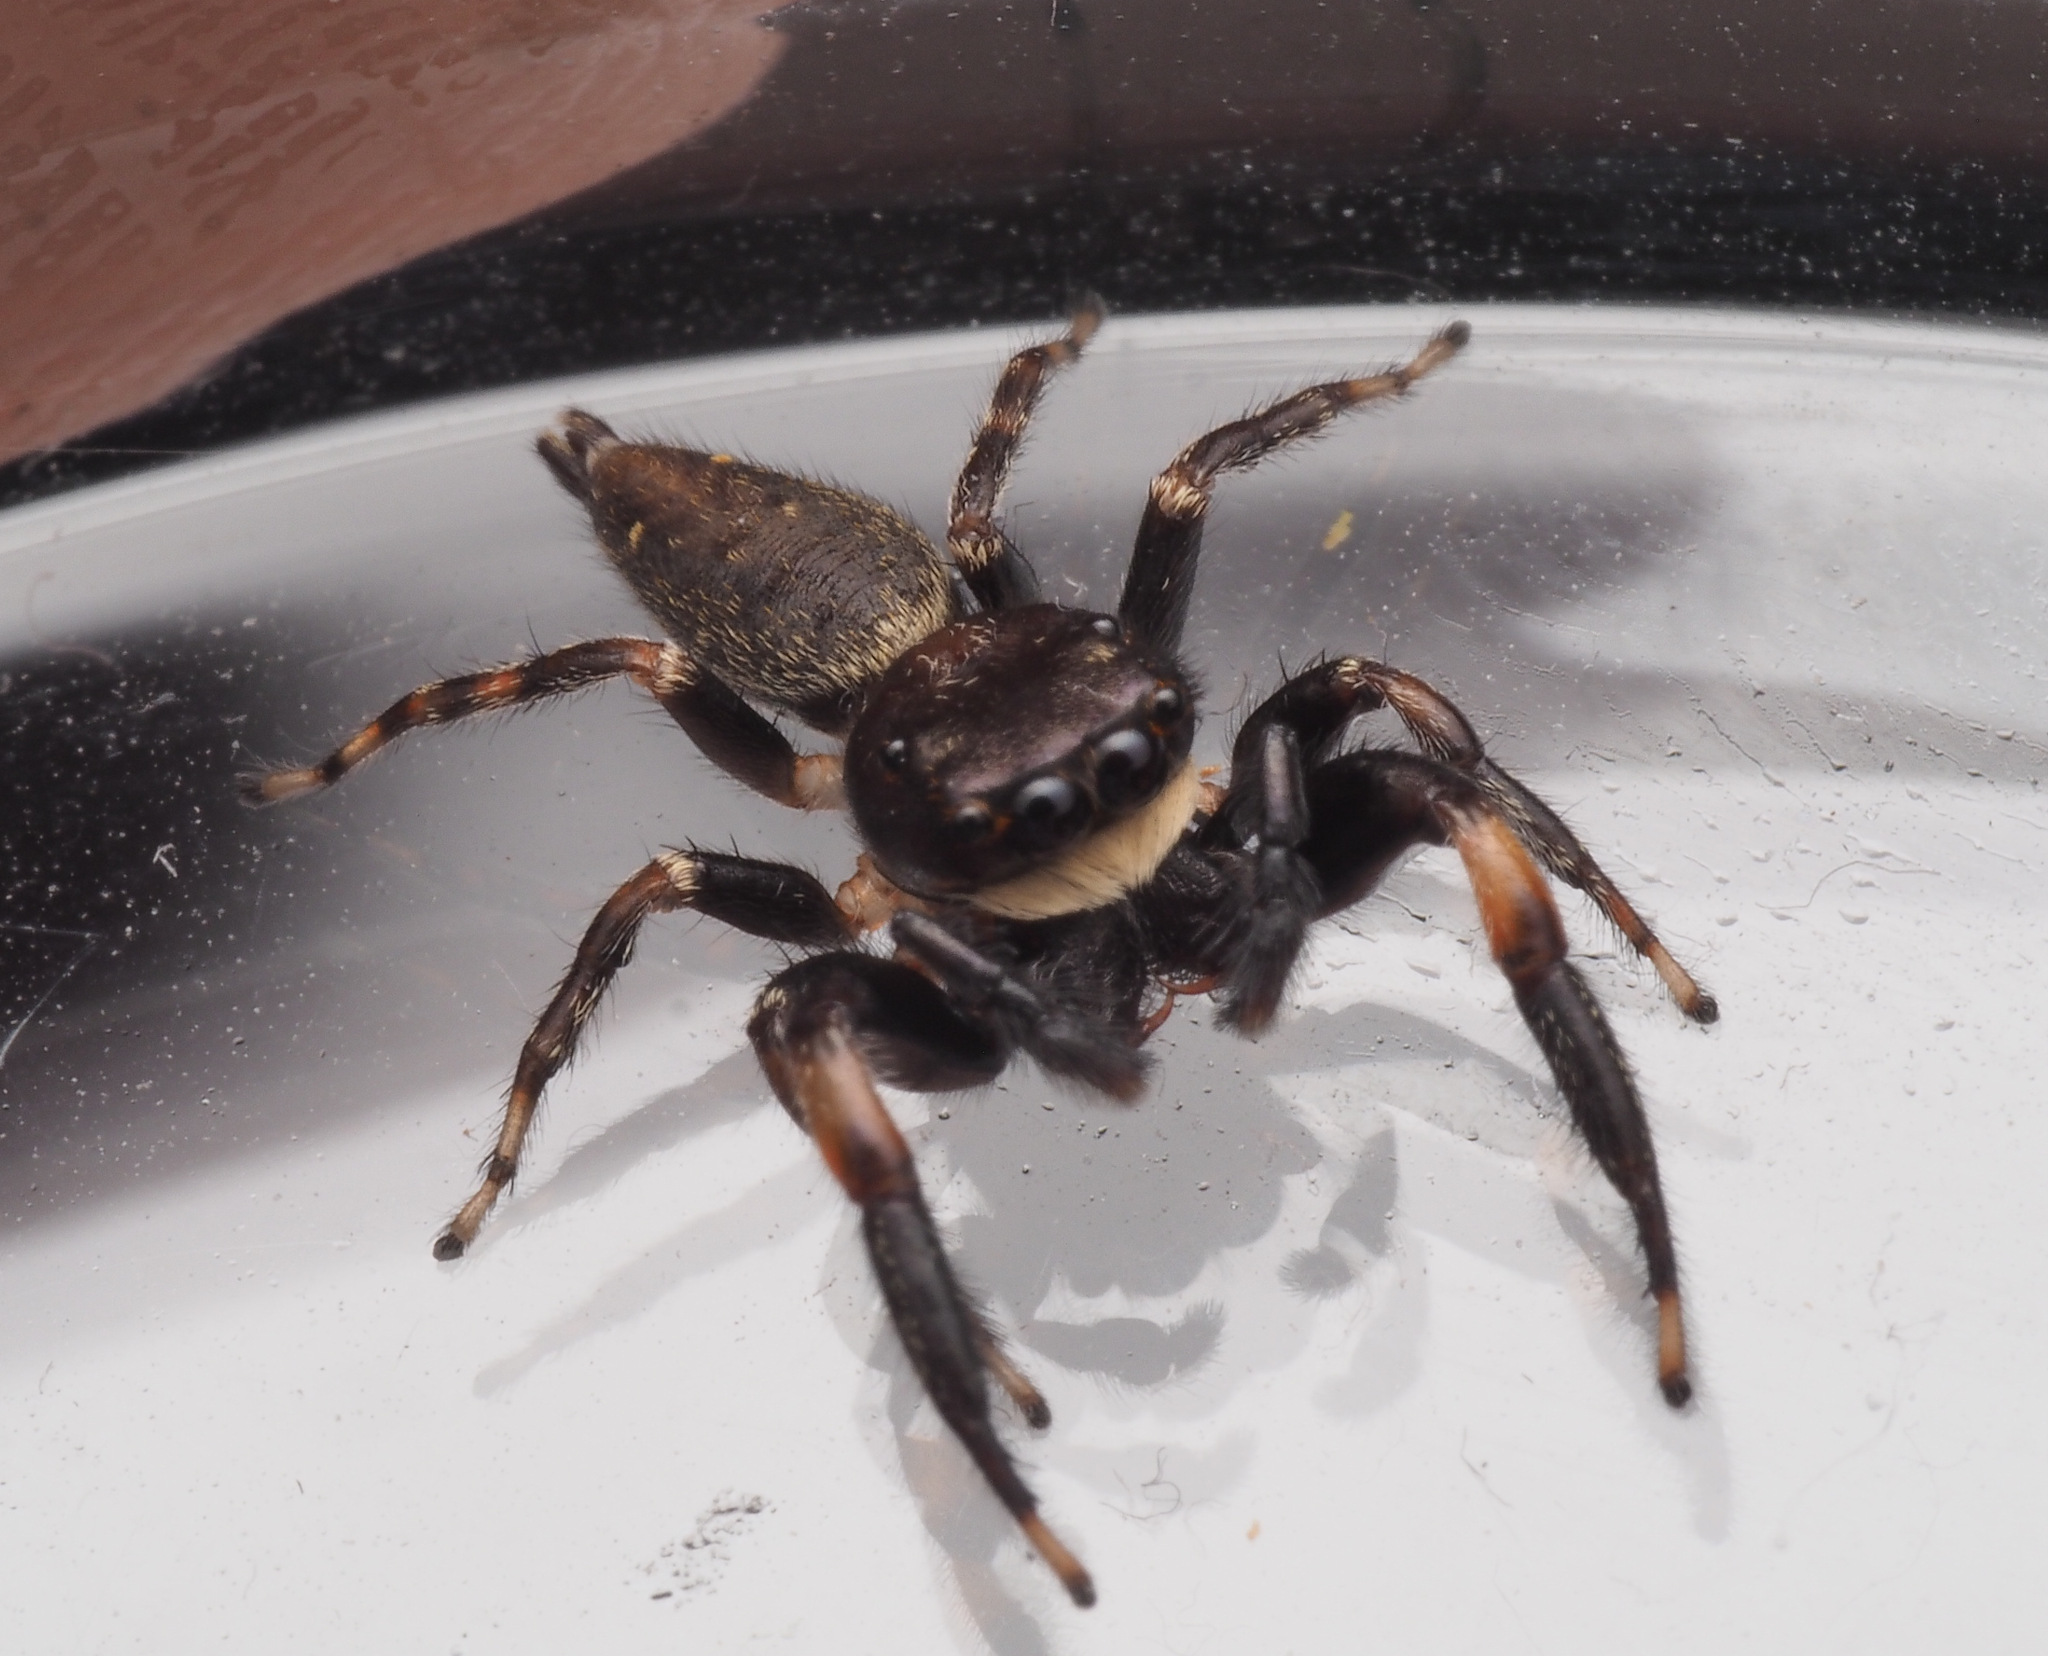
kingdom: Animalia
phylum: Arthropoda
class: Arachnida
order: Araneae
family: Salticidae
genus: Pungalina
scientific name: Pungalina
